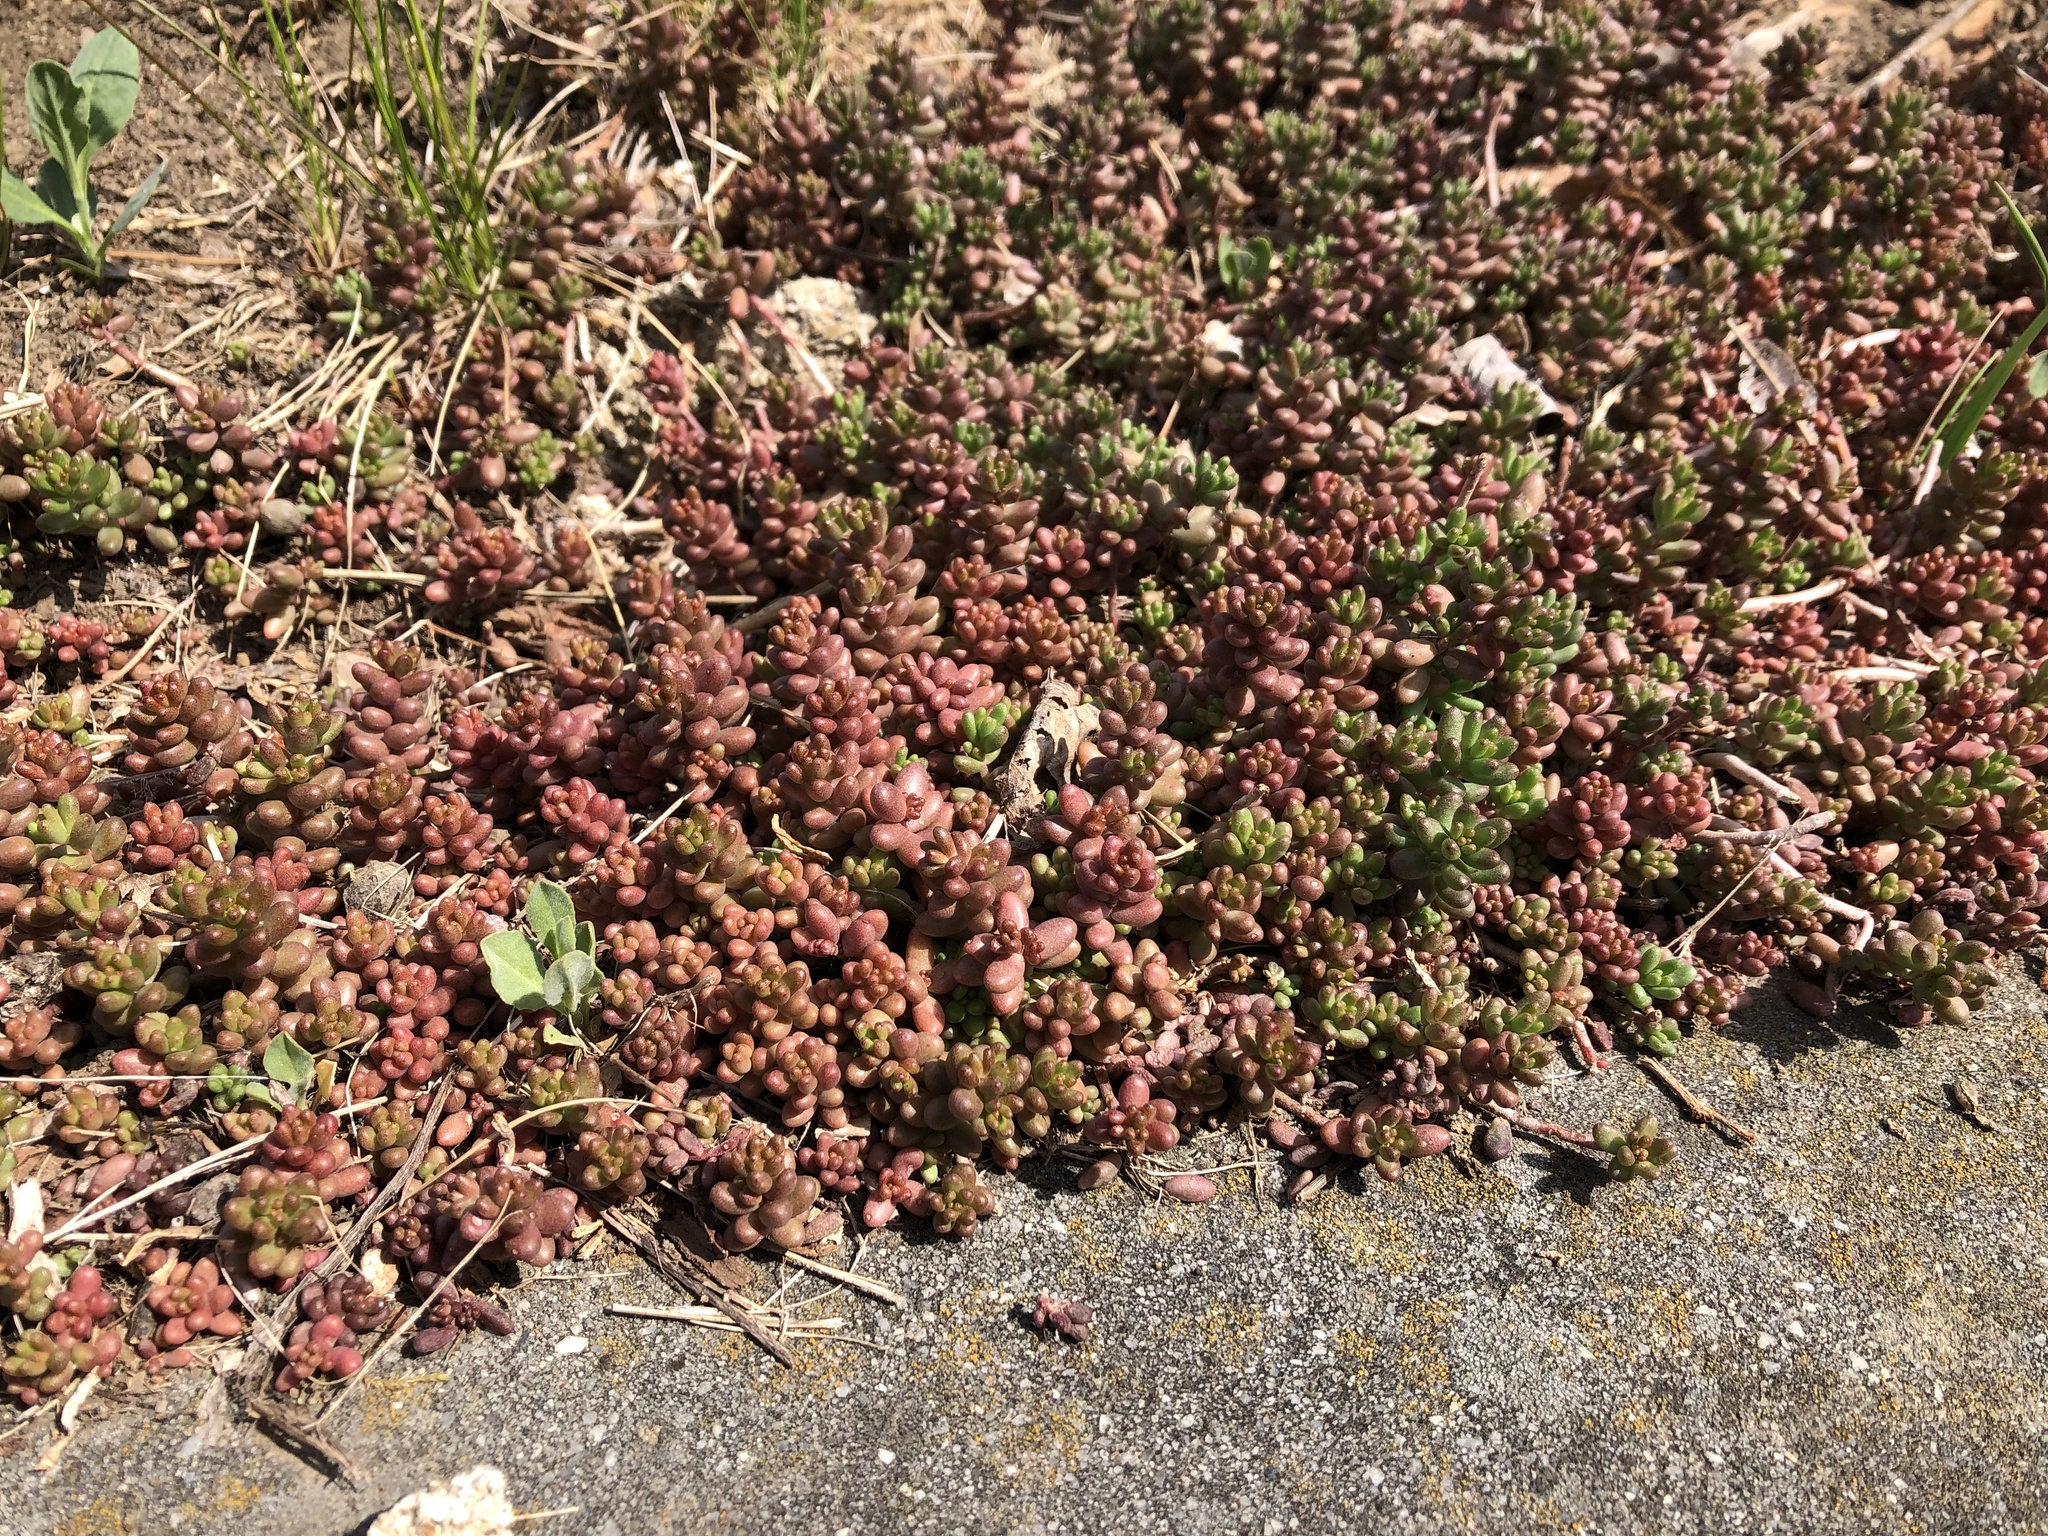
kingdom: Plantae
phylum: Tracheophyta
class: Magnoliopsida
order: Saxifragales
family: Crassulaceae
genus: Sedum
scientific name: Sedum album
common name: White stonecrop
